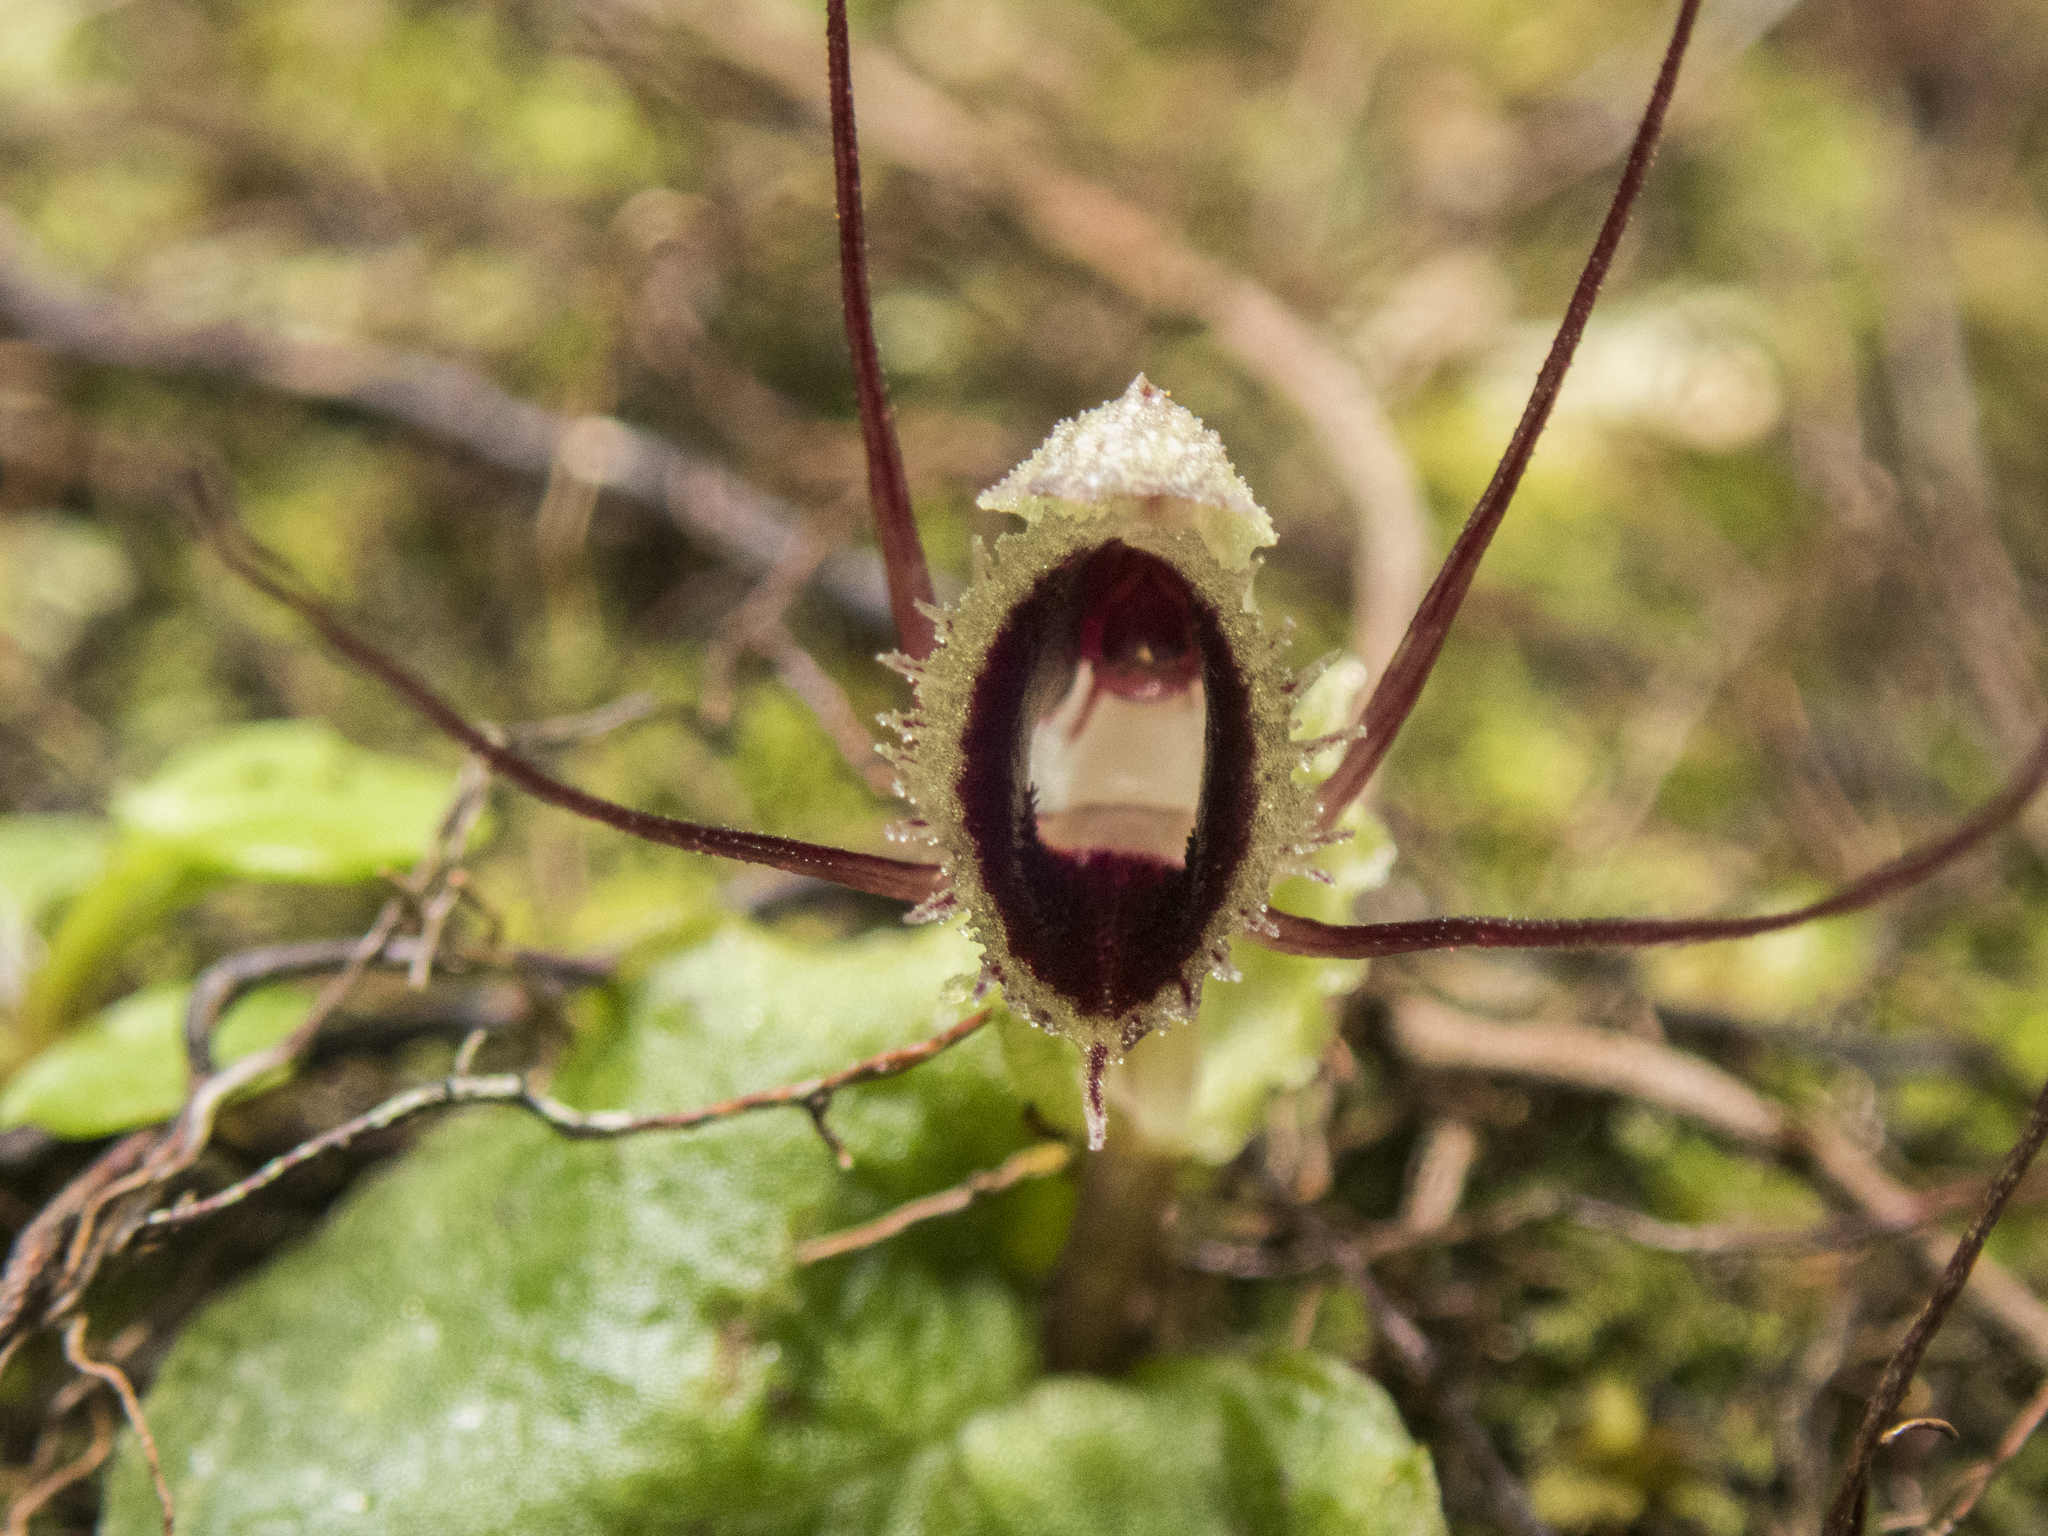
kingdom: Plantae
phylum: Tracheophyta
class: Liliopsida
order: Asparagales
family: Orchidaceae
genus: Corybas
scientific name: Corybas oblongus
